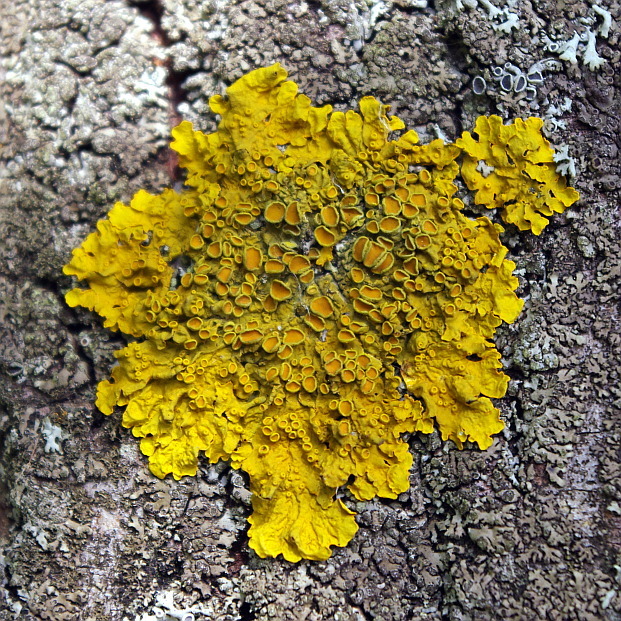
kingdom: Fungi
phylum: Ascomycota
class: Lecanoromycetes
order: Teloschistales
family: Teloschistaceae
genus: Xanthoria
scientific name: Xanthoria parietina
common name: Common orange lichen
